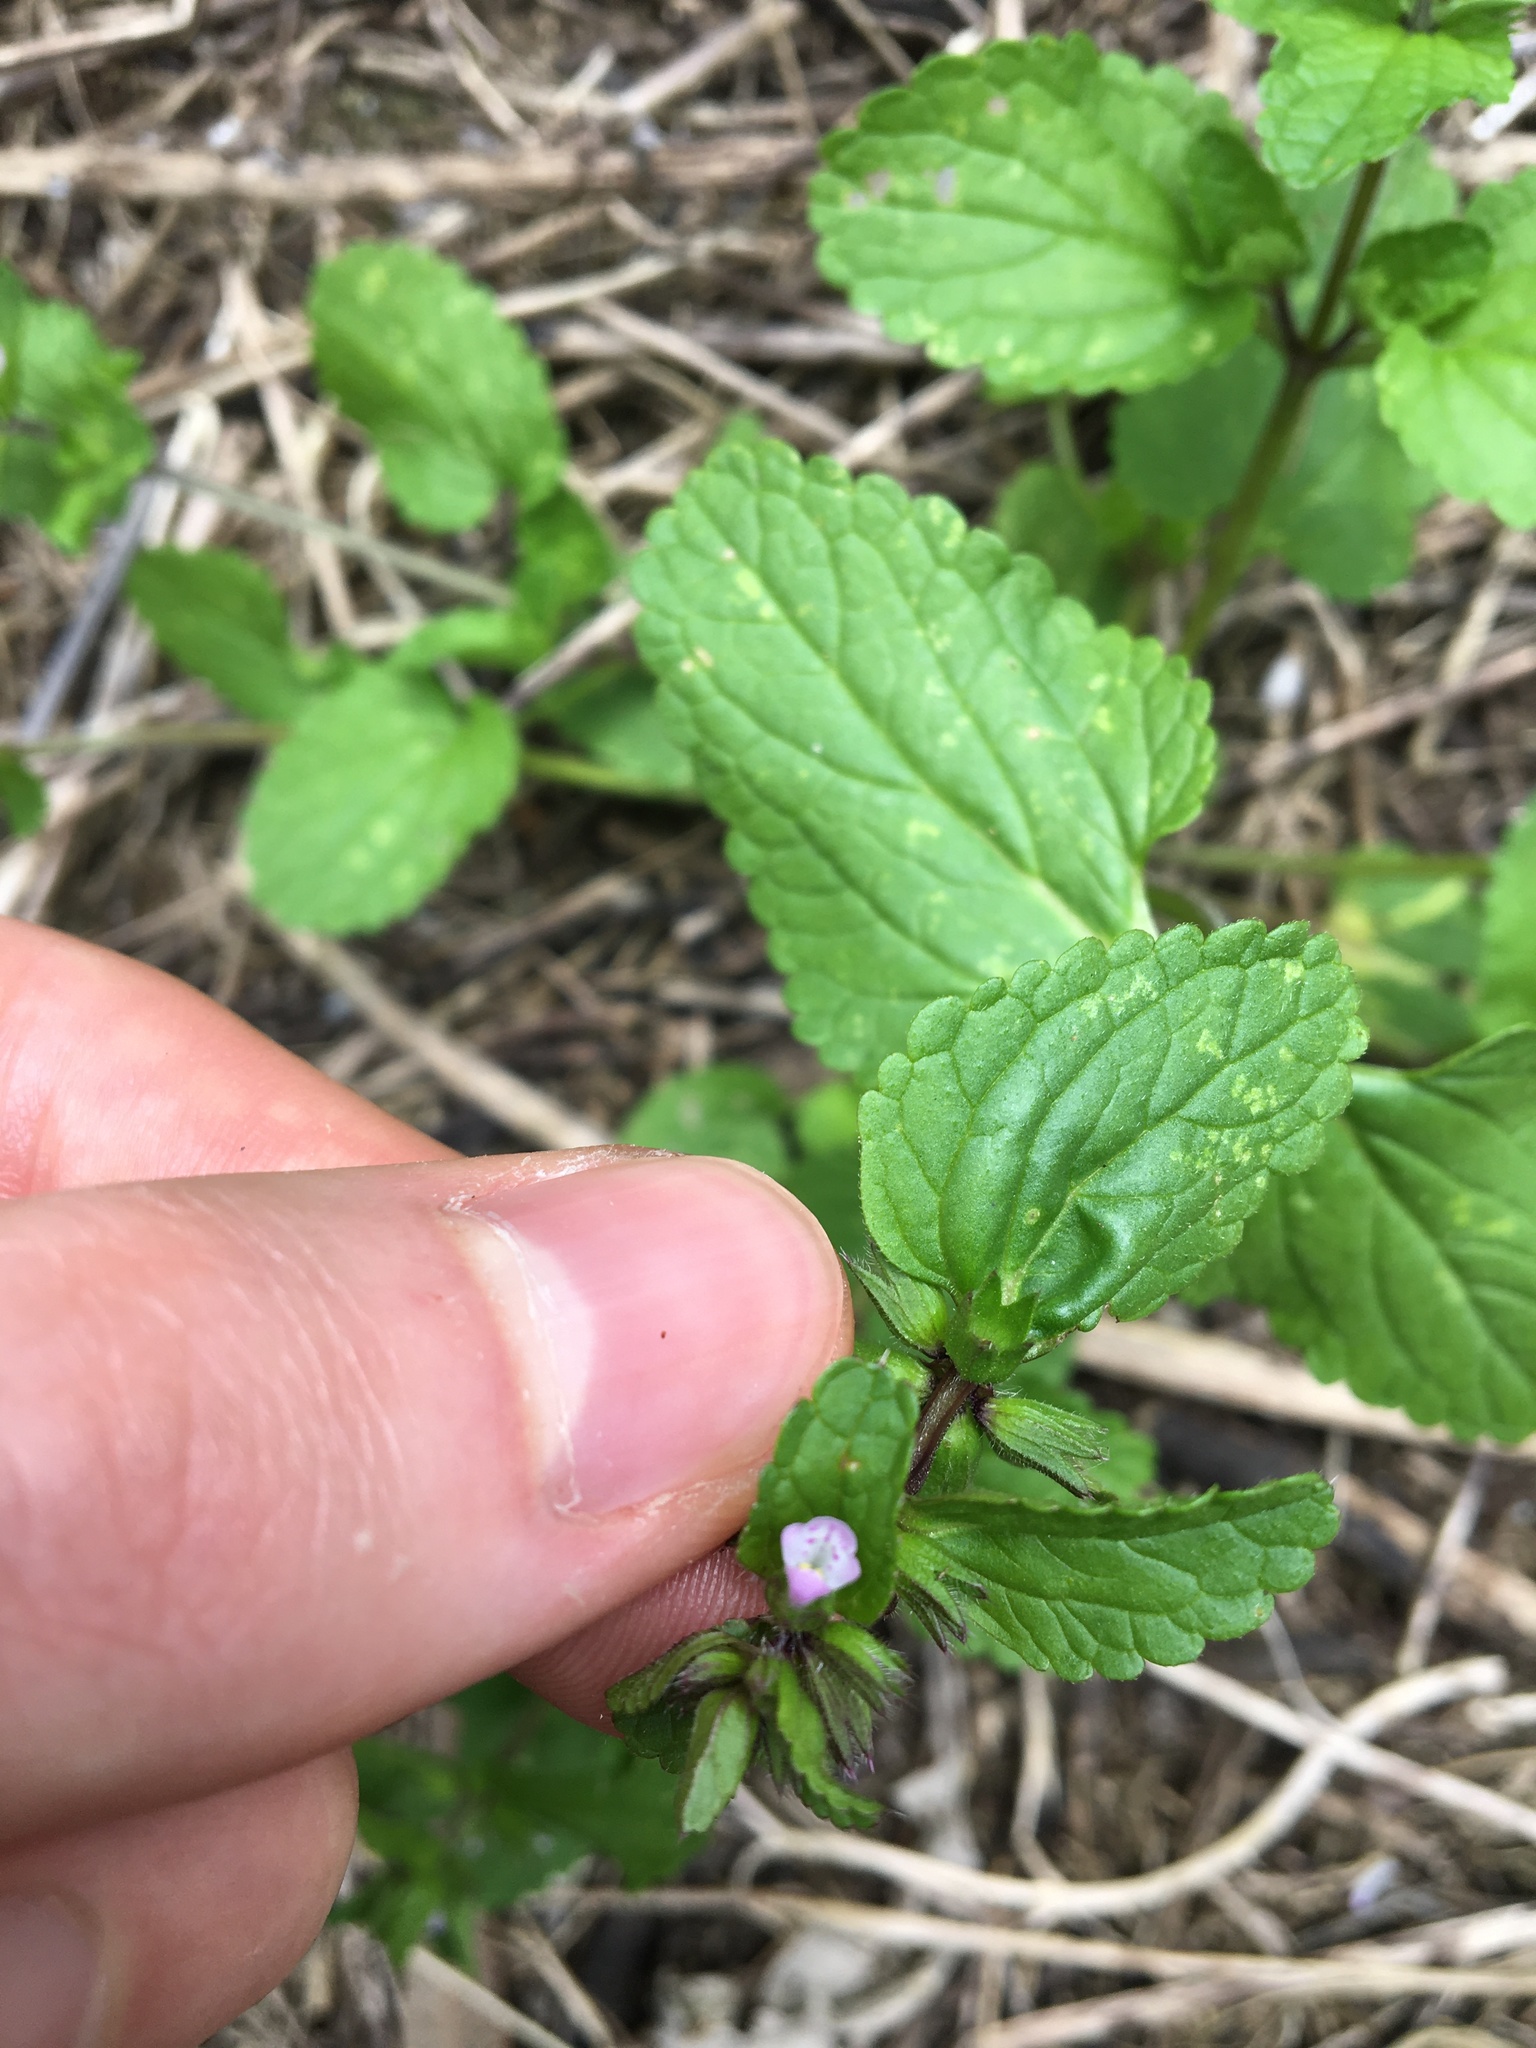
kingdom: Plantae
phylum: Tracheophyta
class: Magnoliopsida
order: Lamiales
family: Lamiaceae
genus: Stachys
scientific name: Stachys arvensis
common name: Field woundwort
